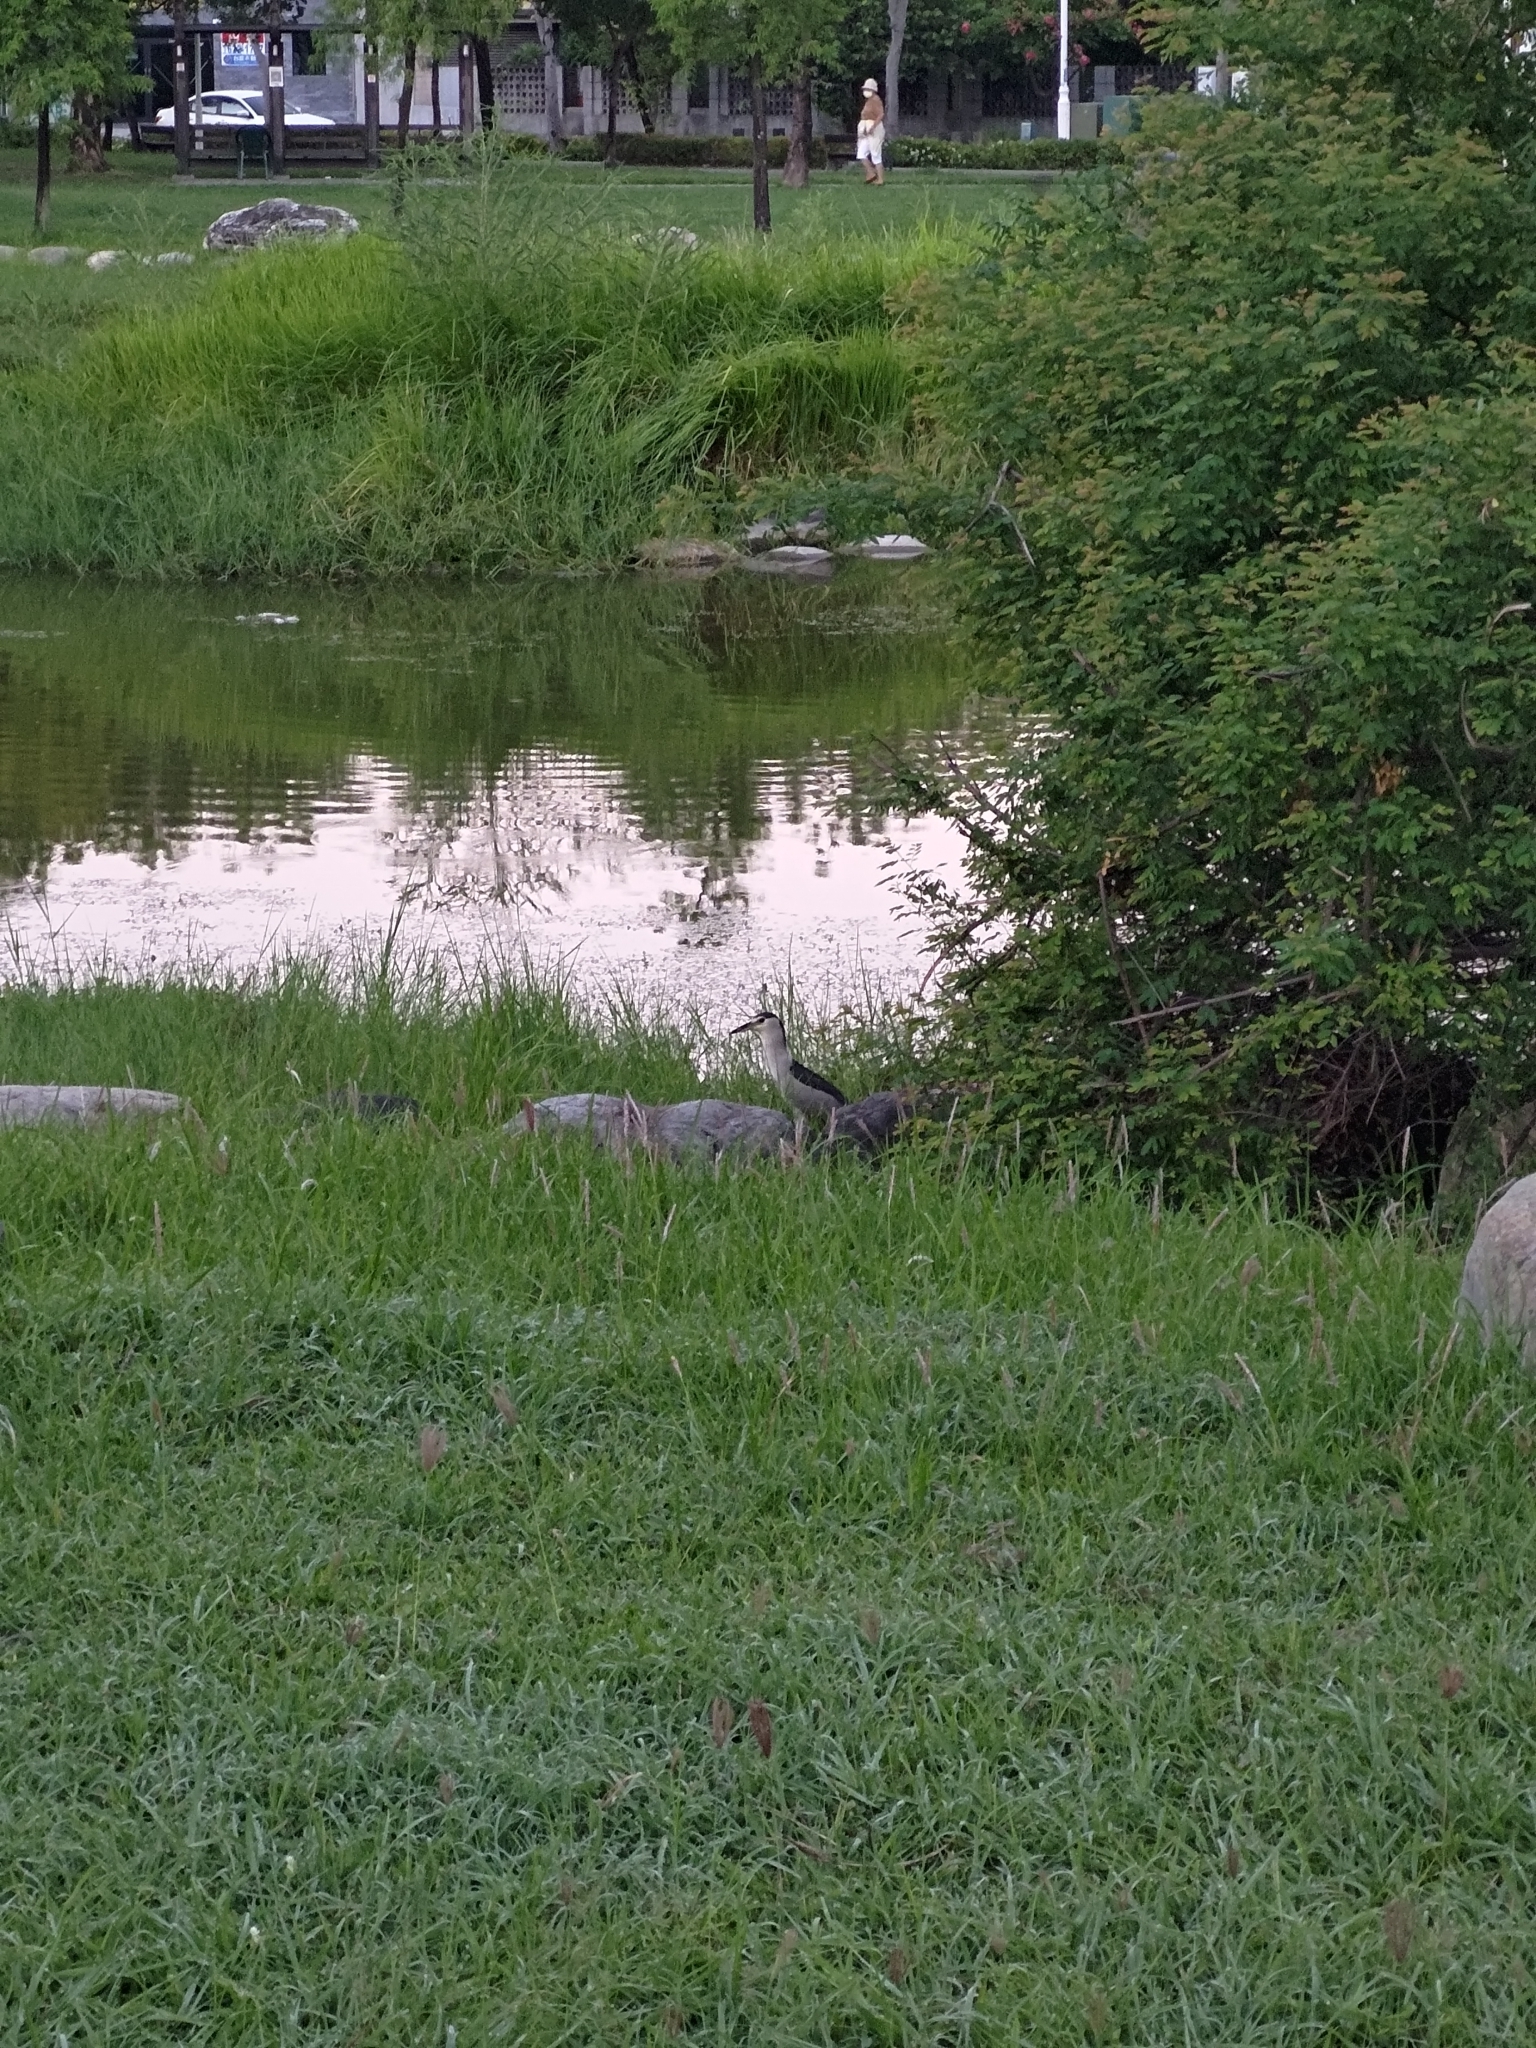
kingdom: Animalia
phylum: Chordata
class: Aves
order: Pelecaniformes
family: Ardeidae
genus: Nycticorax
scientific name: Nycticorax nycticorax
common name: Black-crowned night heron
